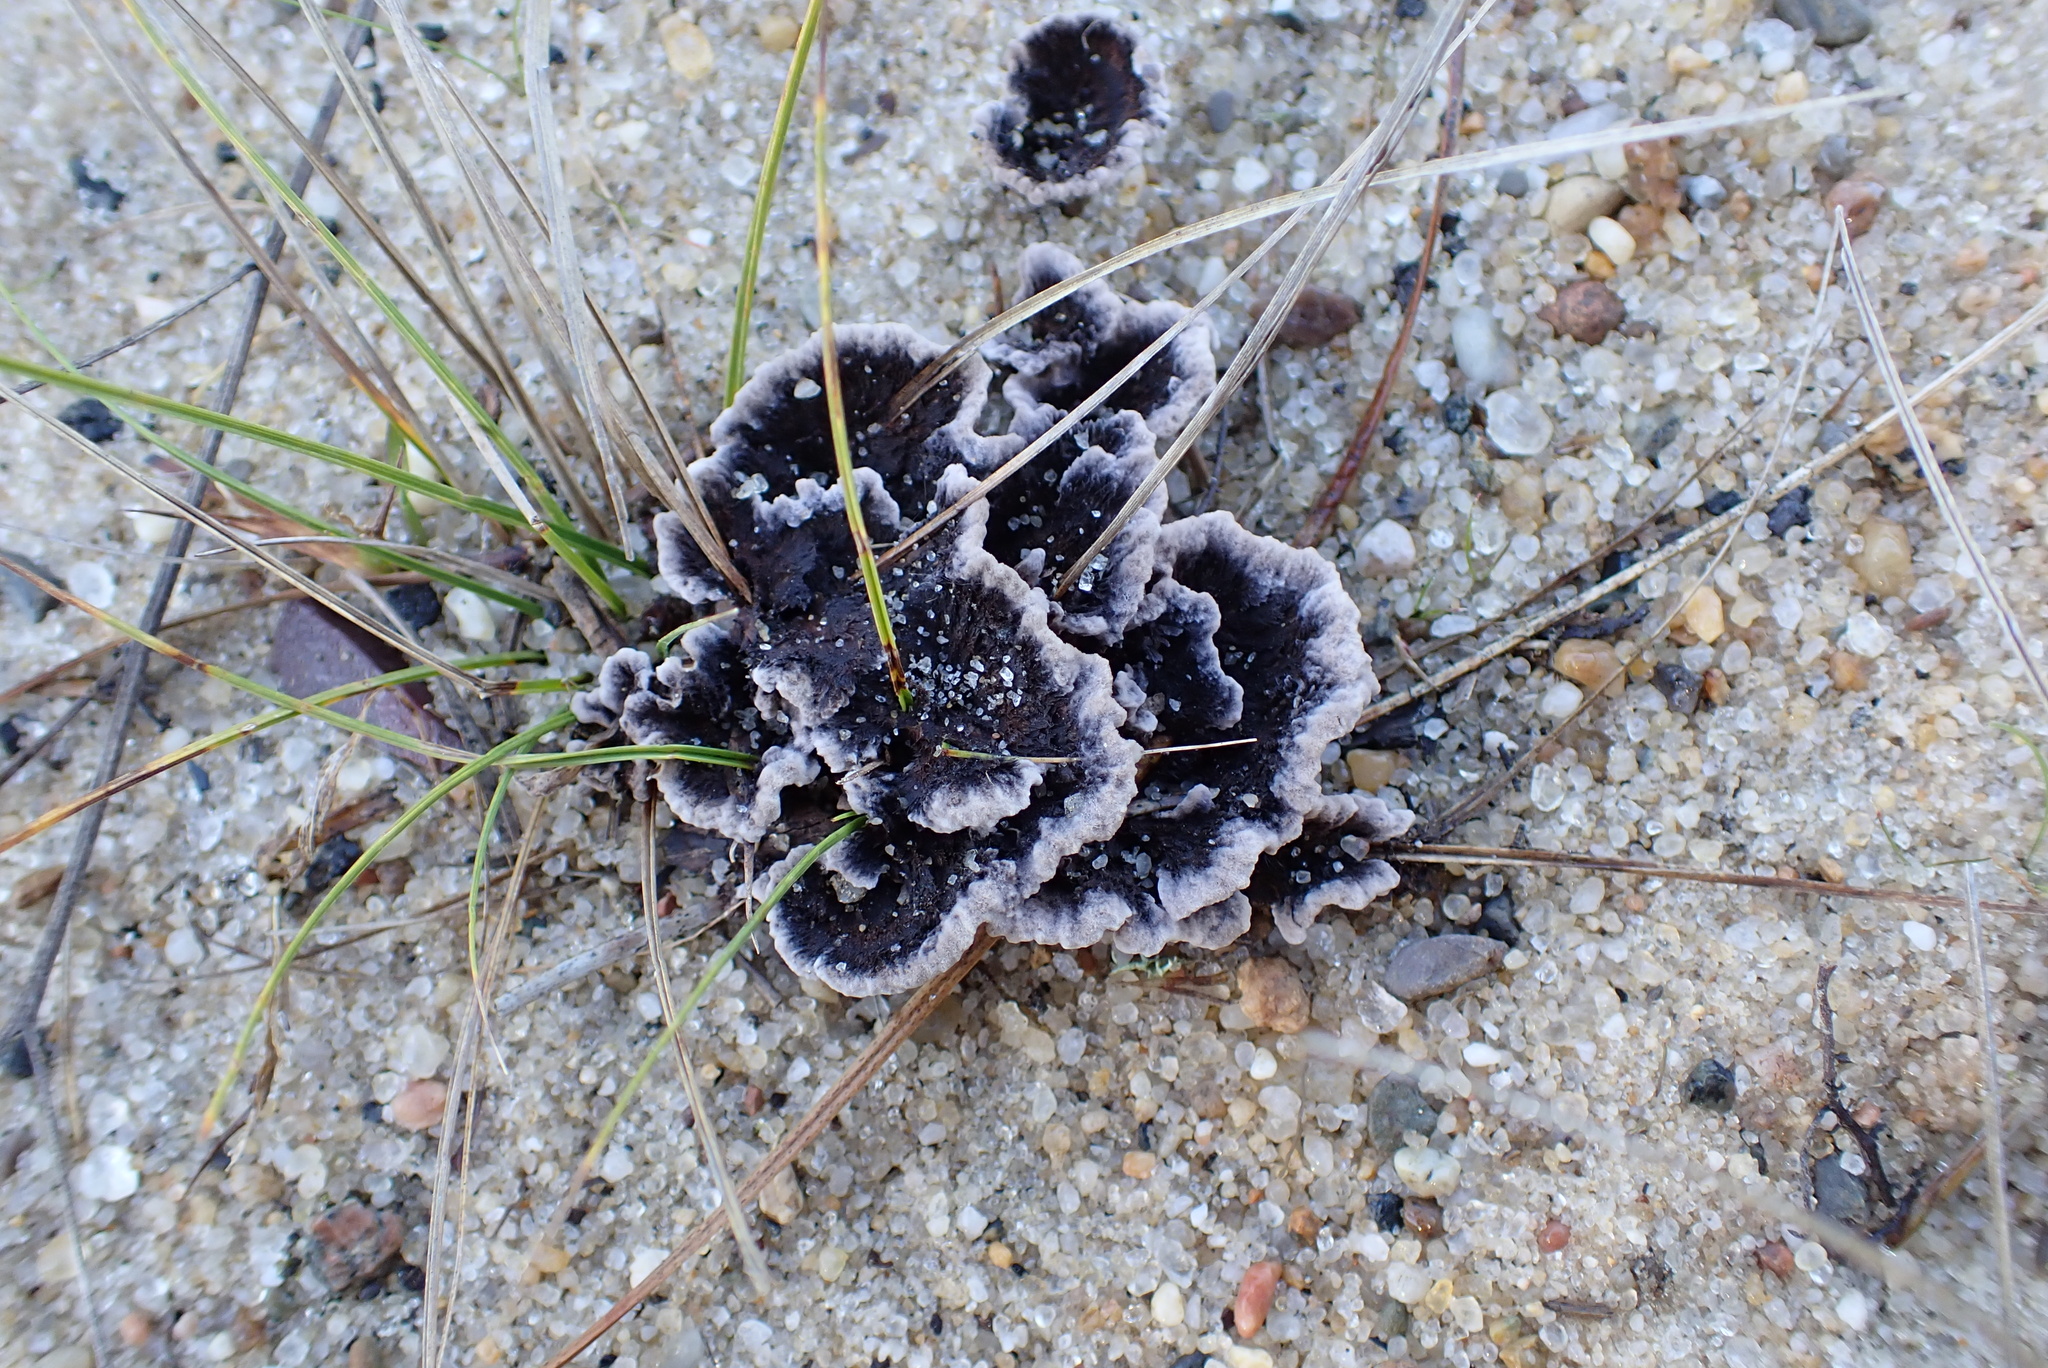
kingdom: Fungi
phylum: Basidiomycota
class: Agaricomycetes
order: Thelephorales
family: Thelephoraceae
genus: Thelephora
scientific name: Thelephora terrestris
